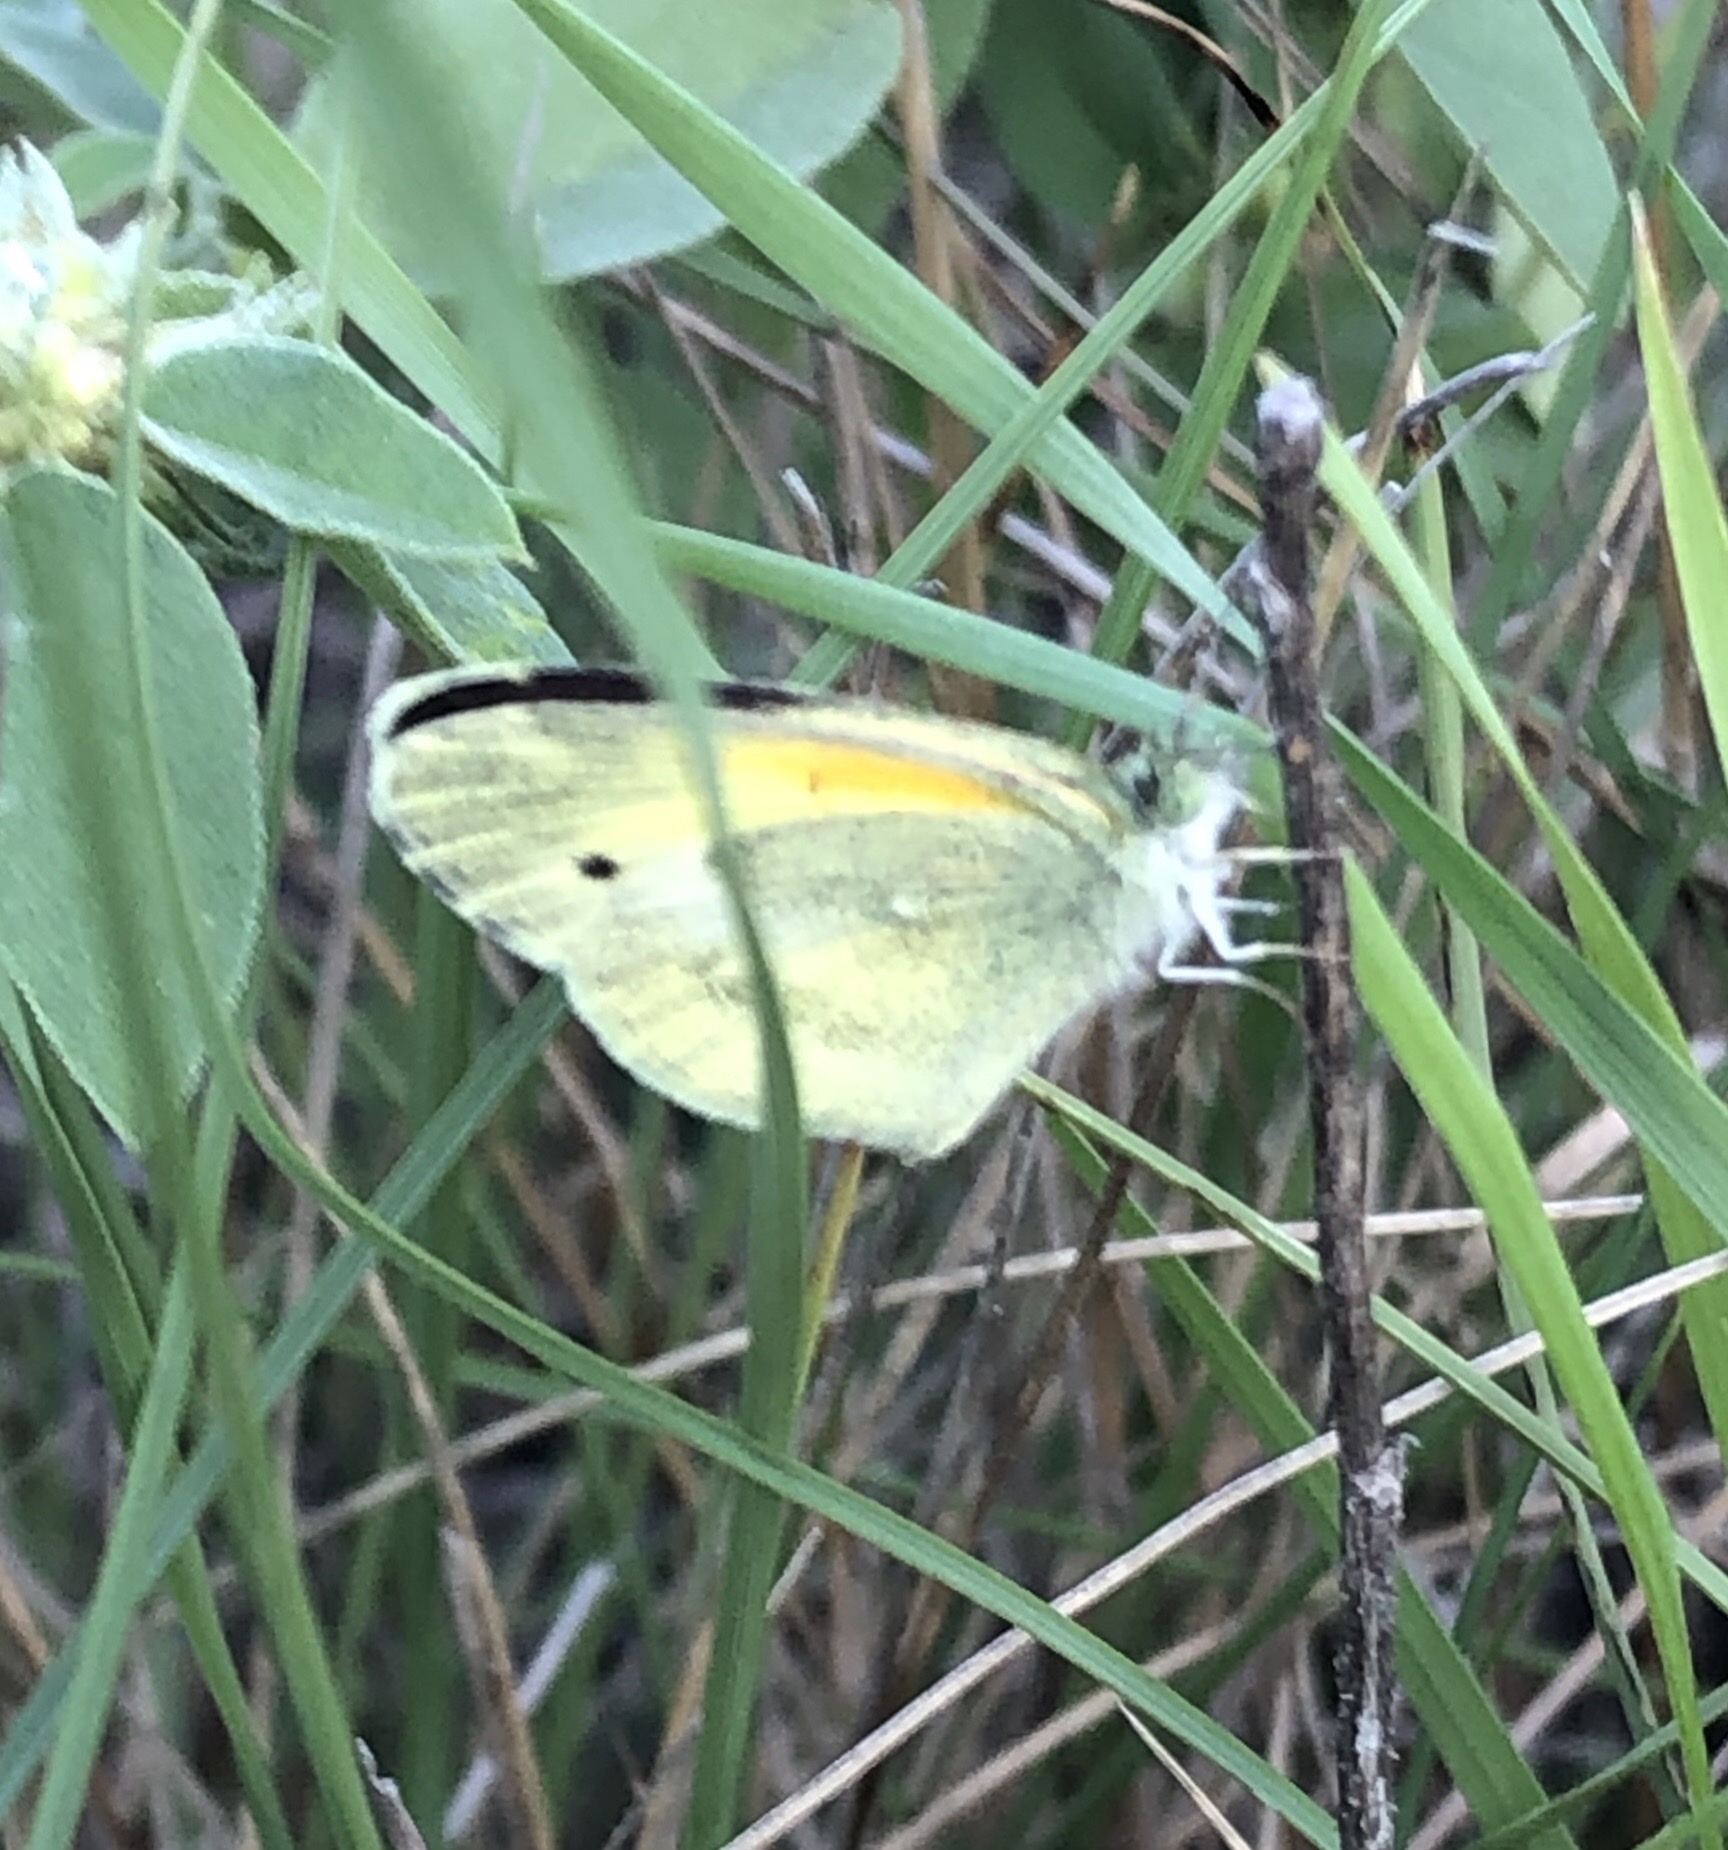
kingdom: Animalia
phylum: Arthropoda
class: Insecta
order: Lepidoptera
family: Pieridae
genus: Nathalis
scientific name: Nathalis iole
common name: Dainty sulphur
